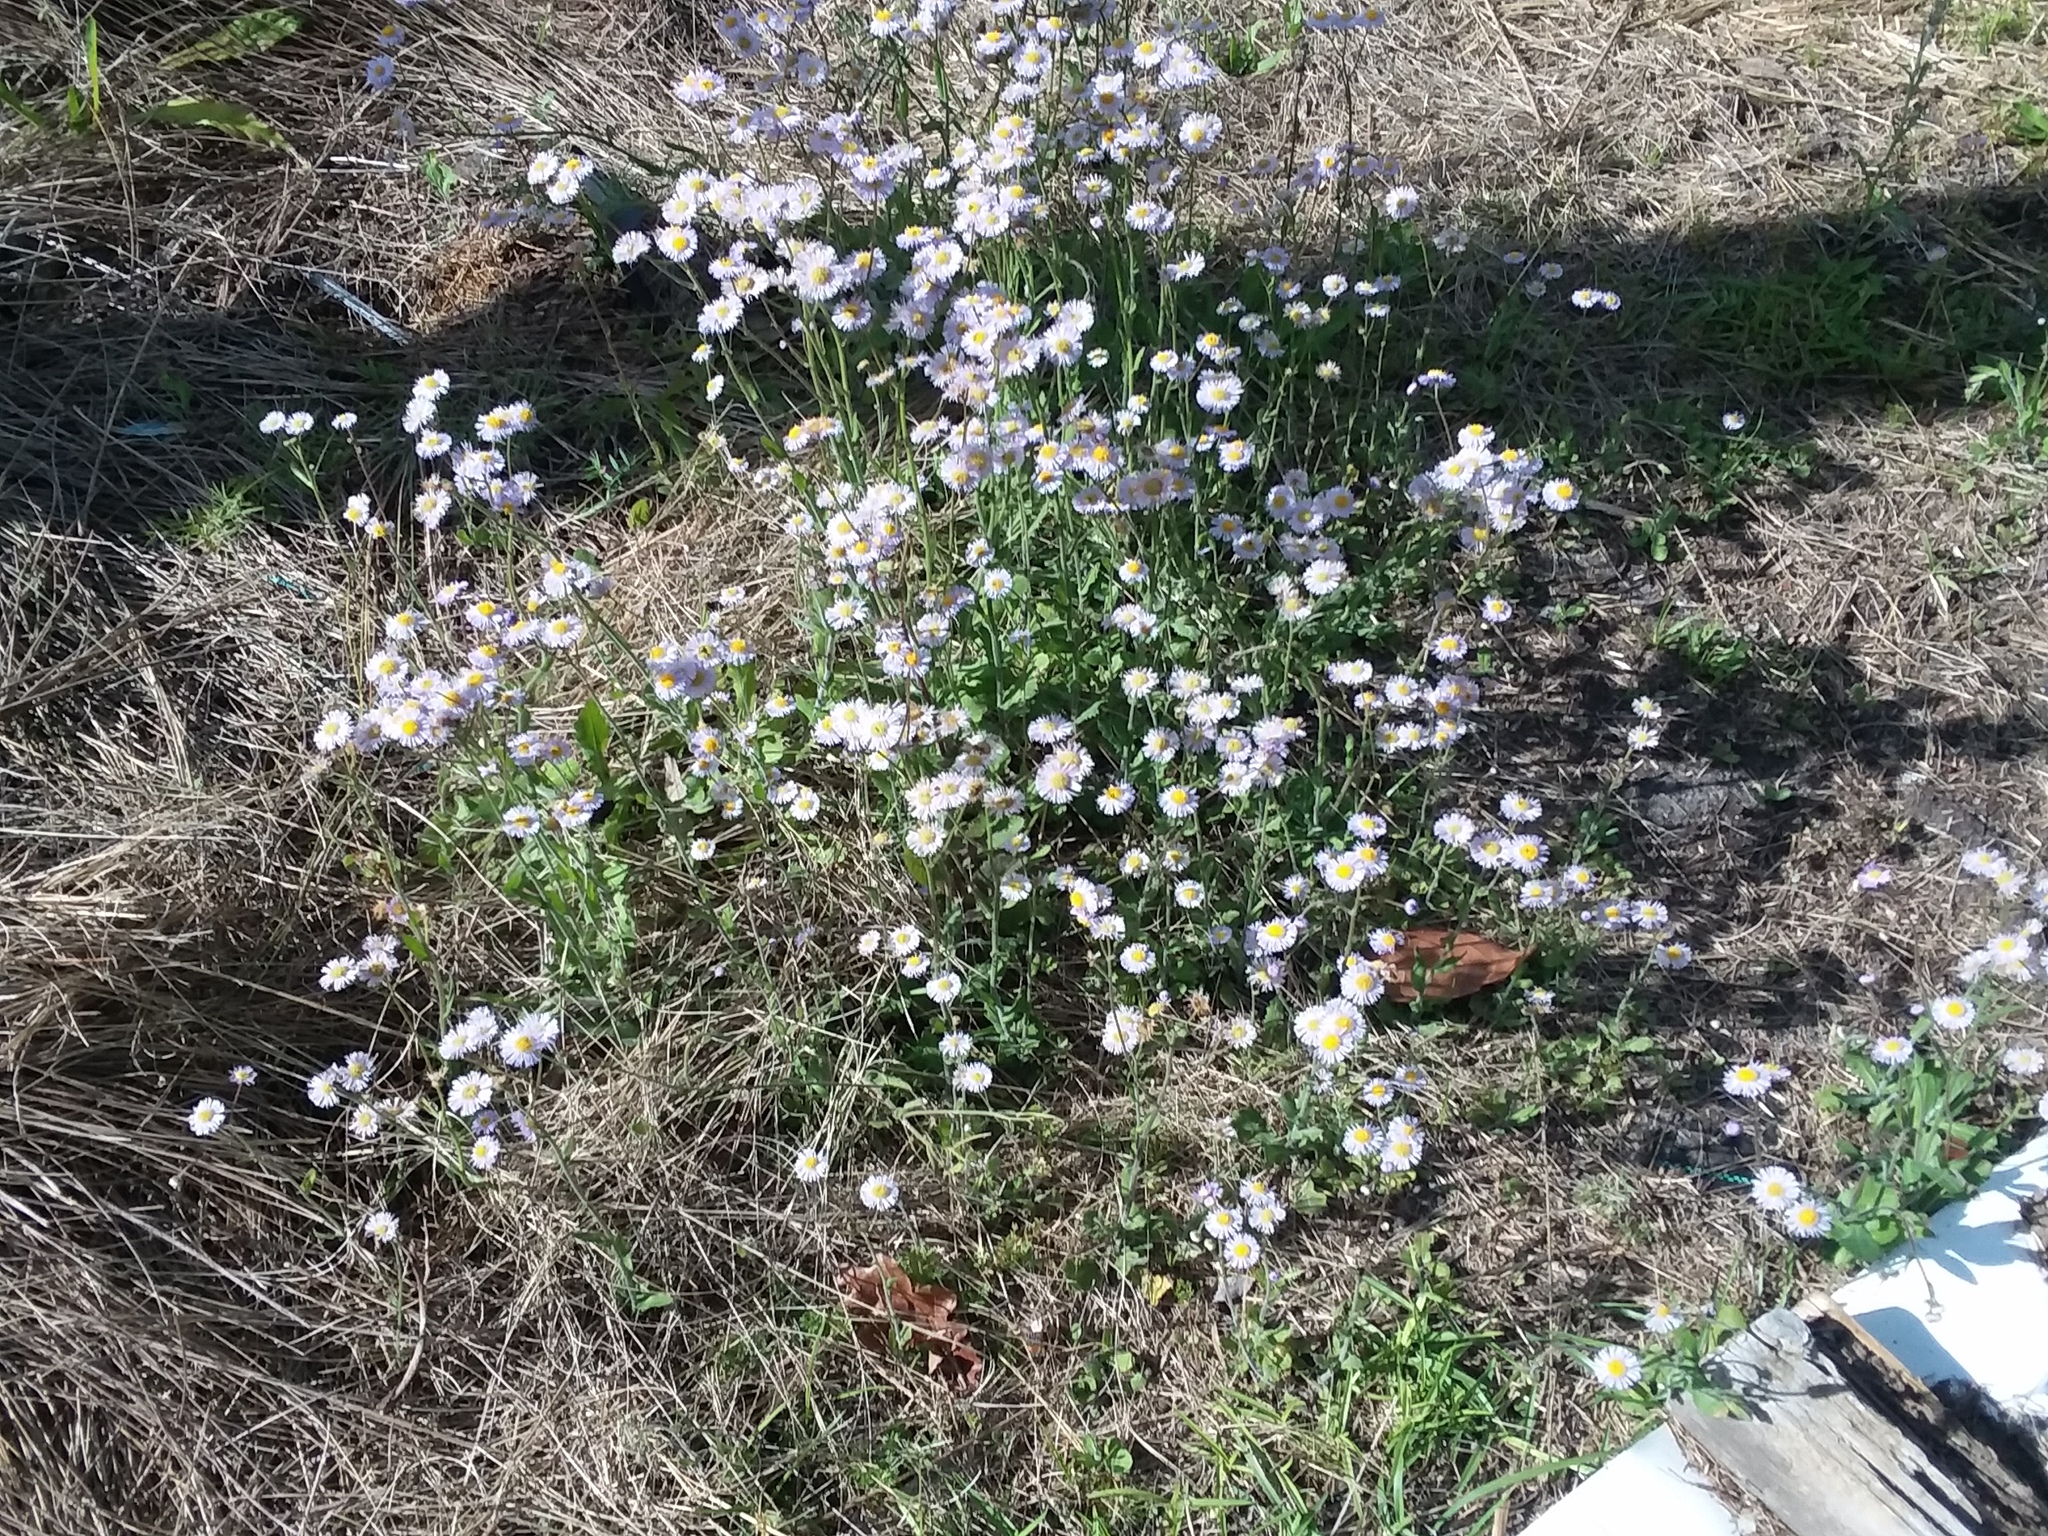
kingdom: Plantae
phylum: Tracheophyta
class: Magnoliopsida
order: Asterales
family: Asteraceae
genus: Erigeron
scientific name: Erigeron quercifolius
